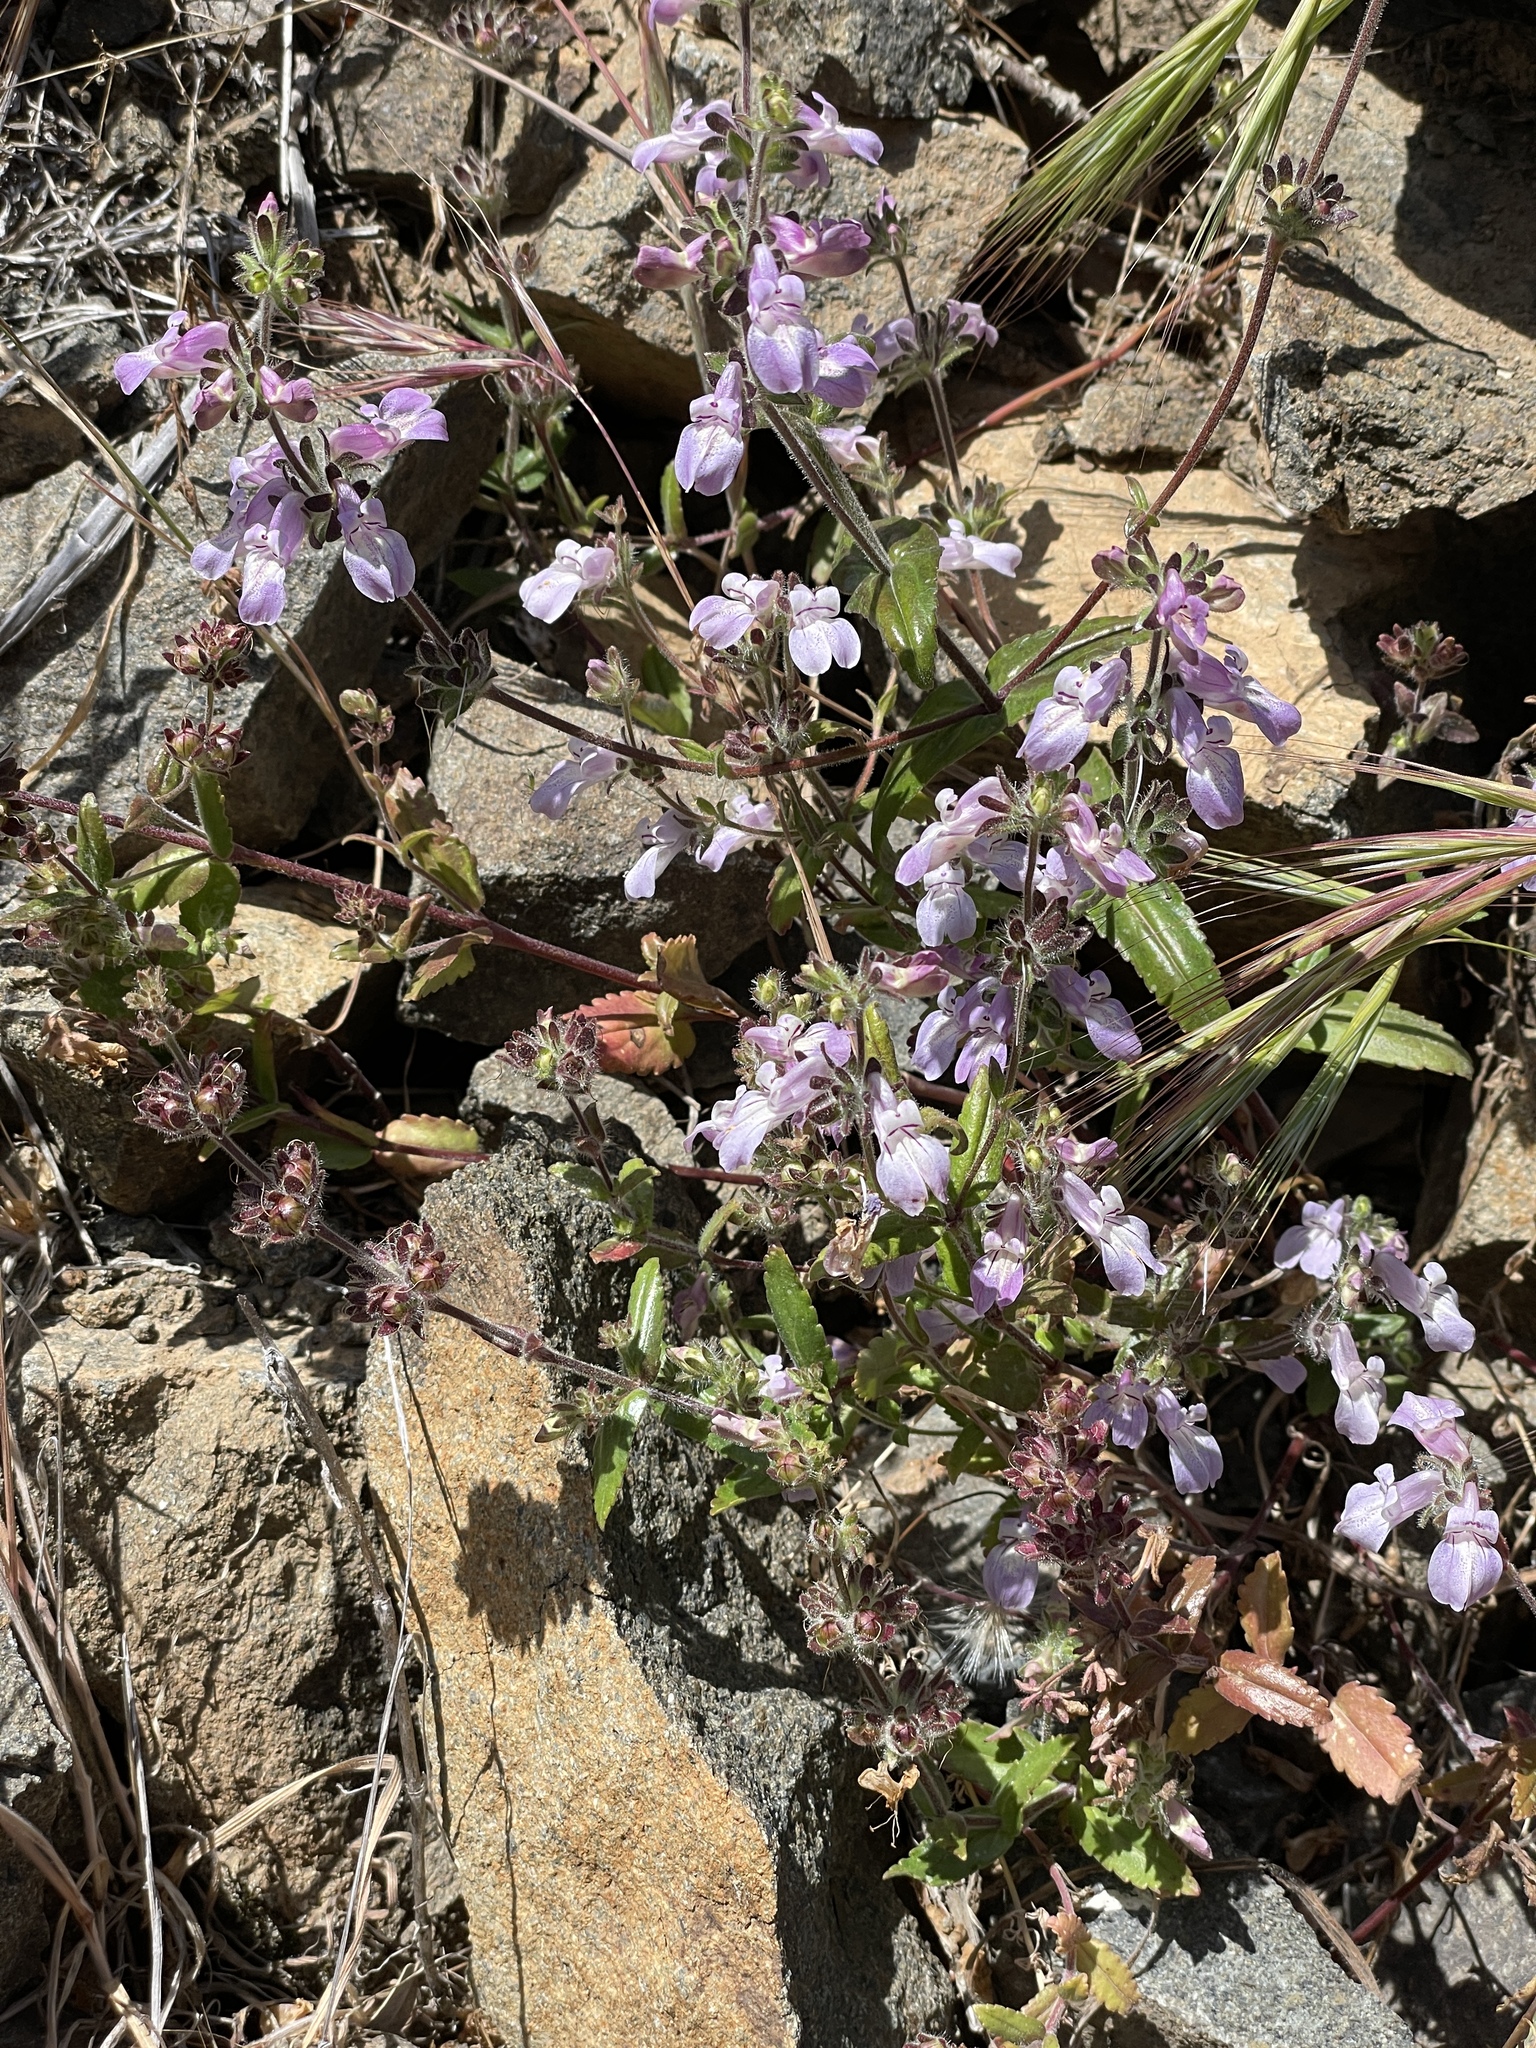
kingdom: Plantae
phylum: Tracheophyta
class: Magnoliopsida
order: Lamiales
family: Plantaginaceae
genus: Collinsia
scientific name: Collinsia tinctoria
